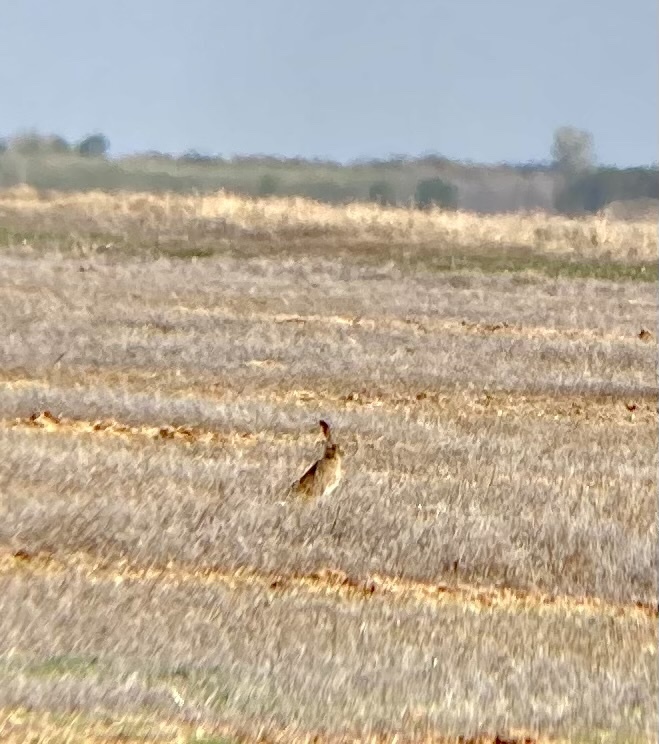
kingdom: Animalia
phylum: Chordata
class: Mammalia
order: Lagomorpha
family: Leporidae
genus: Lepus
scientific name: Lepus townsendii
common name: White-tailed jackrabbit
